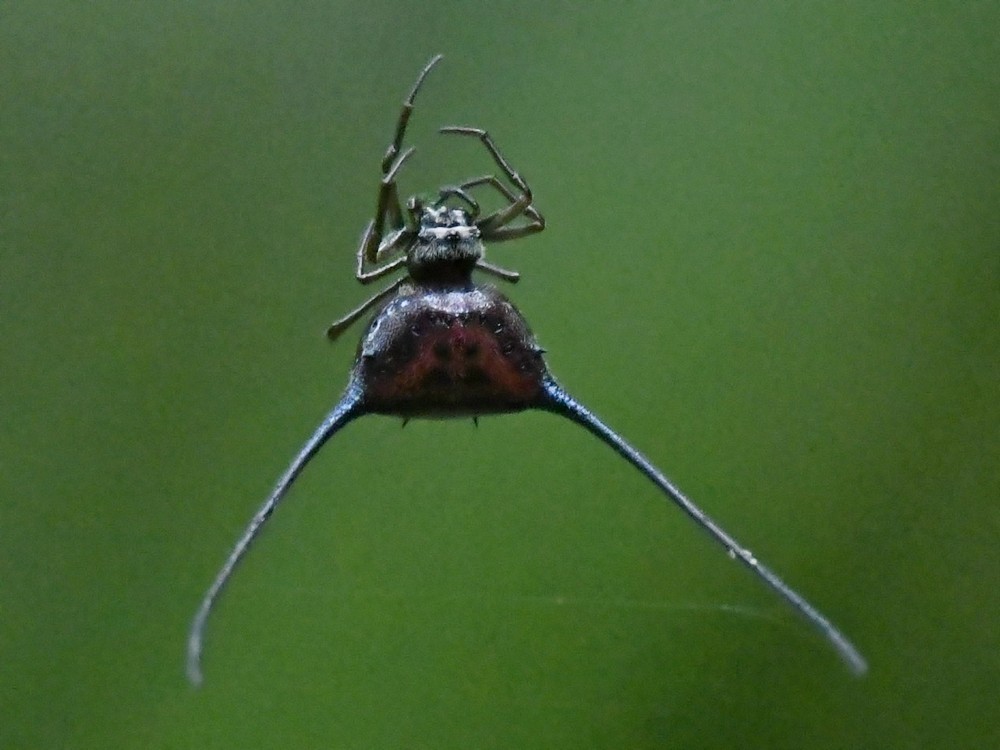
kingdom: Animalia
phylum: Arthropoda
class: Arachnida
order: Araneae
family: Araneidae
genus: Macracantha
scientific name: Macracantha arcuata
